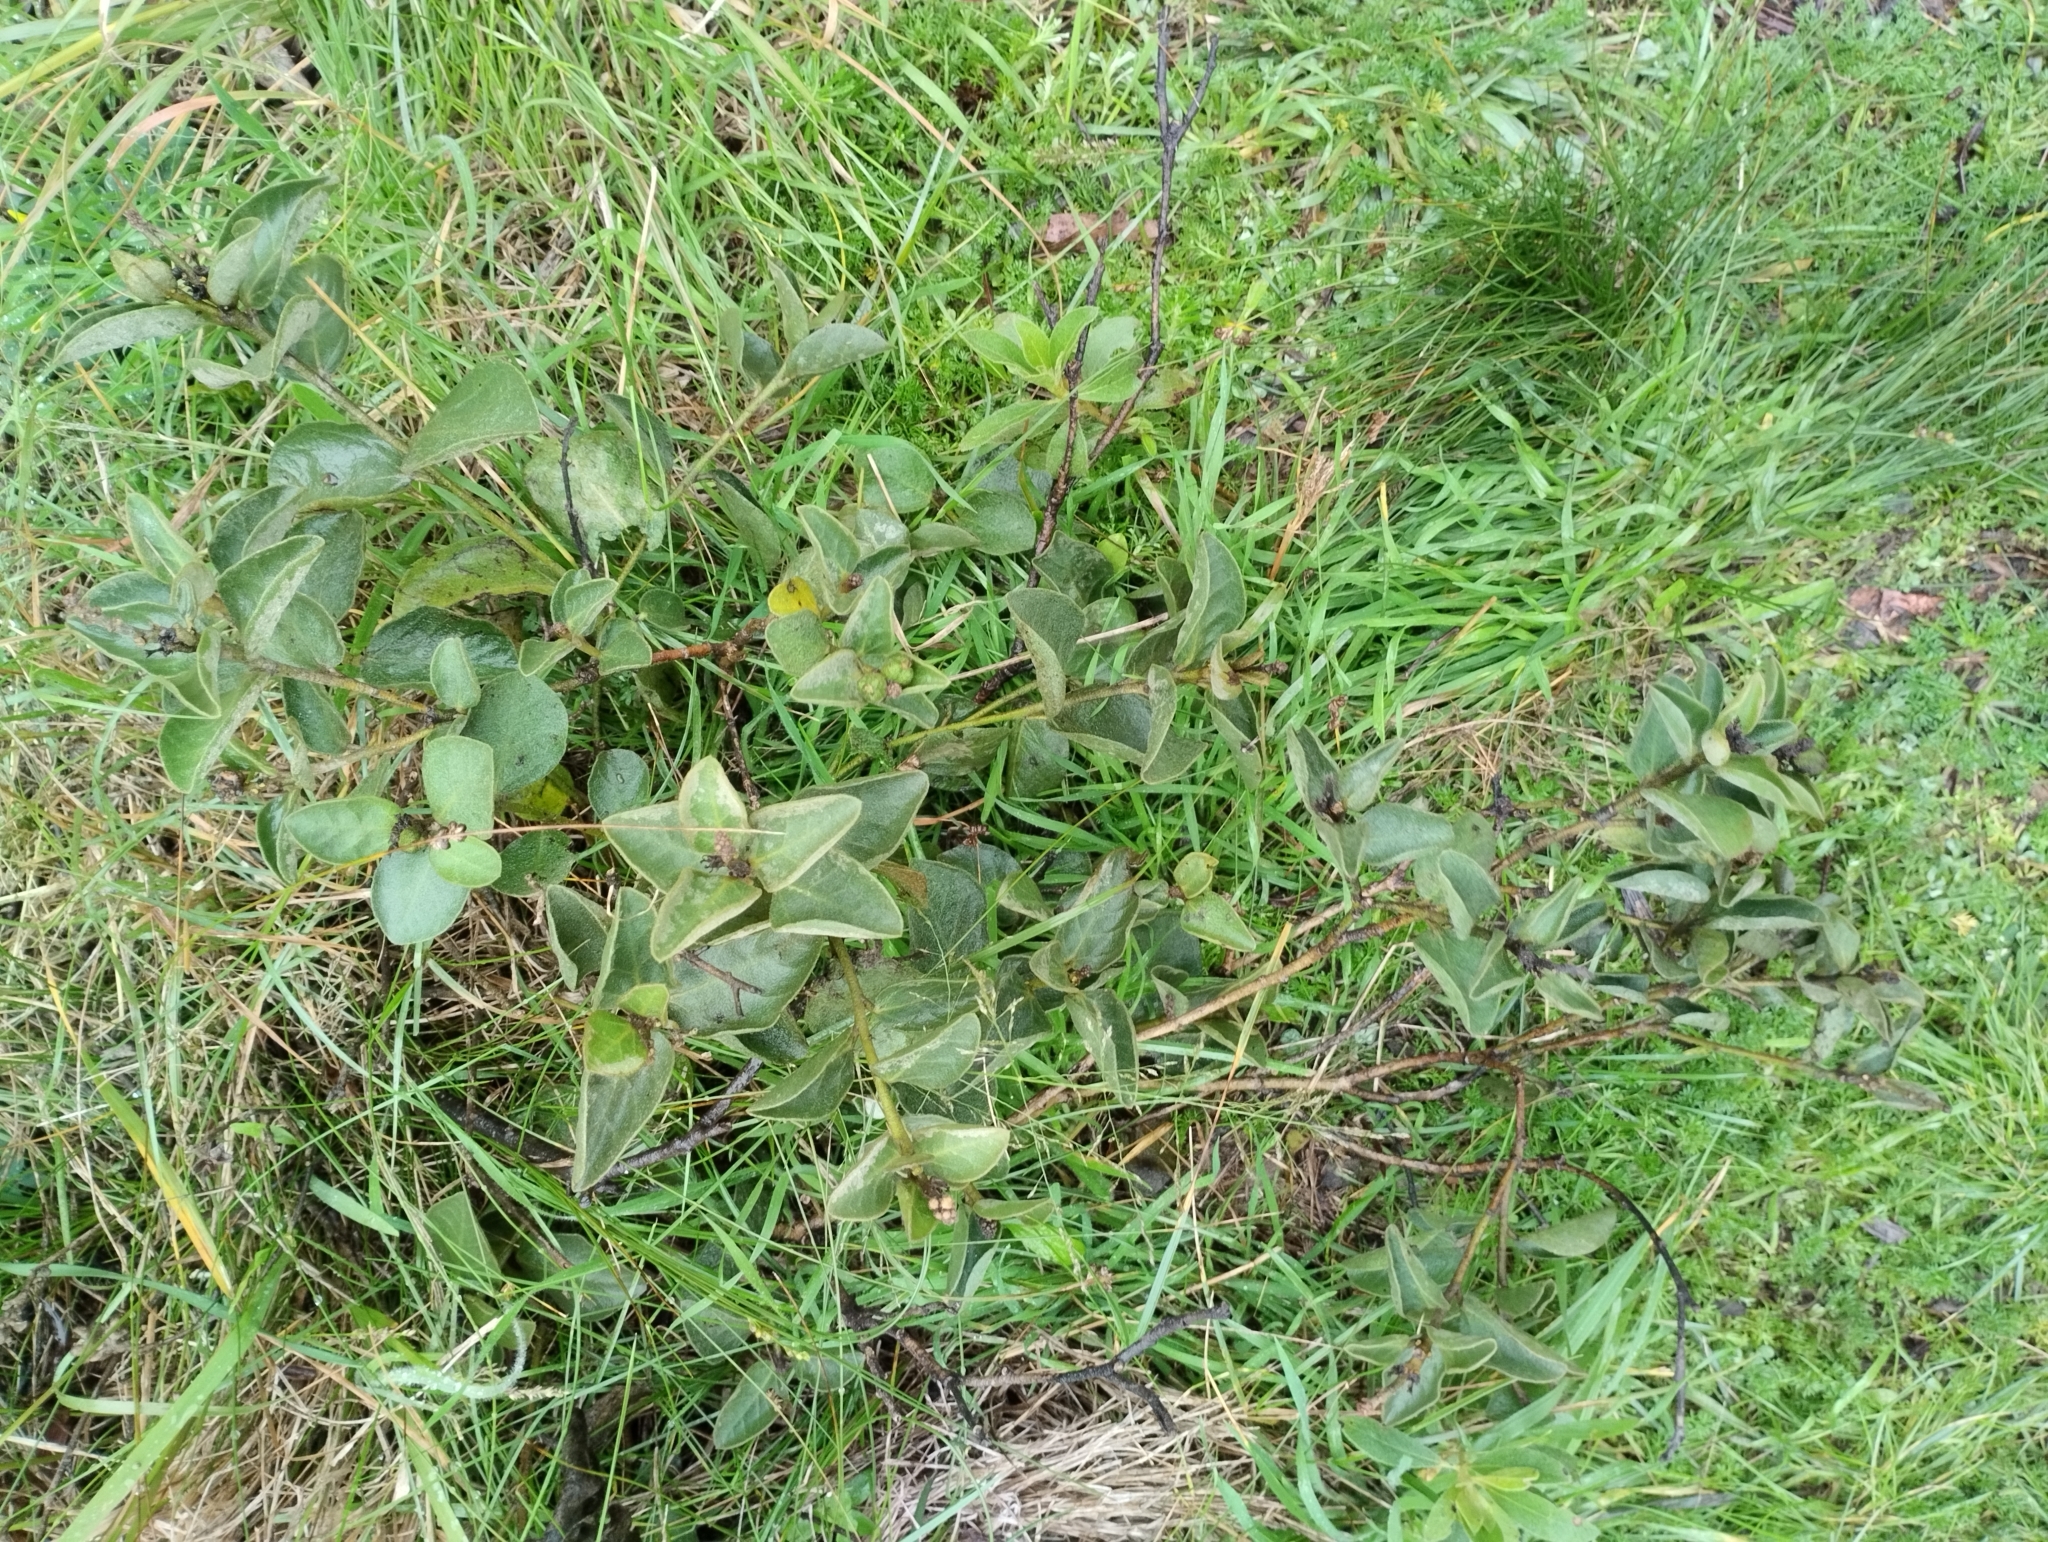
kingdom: Plantae
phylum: Tracheophyta
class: Magnoliopsida
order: Malpighiales
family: Euphorbiaceae
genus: Croton
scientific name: Croton lanatus
